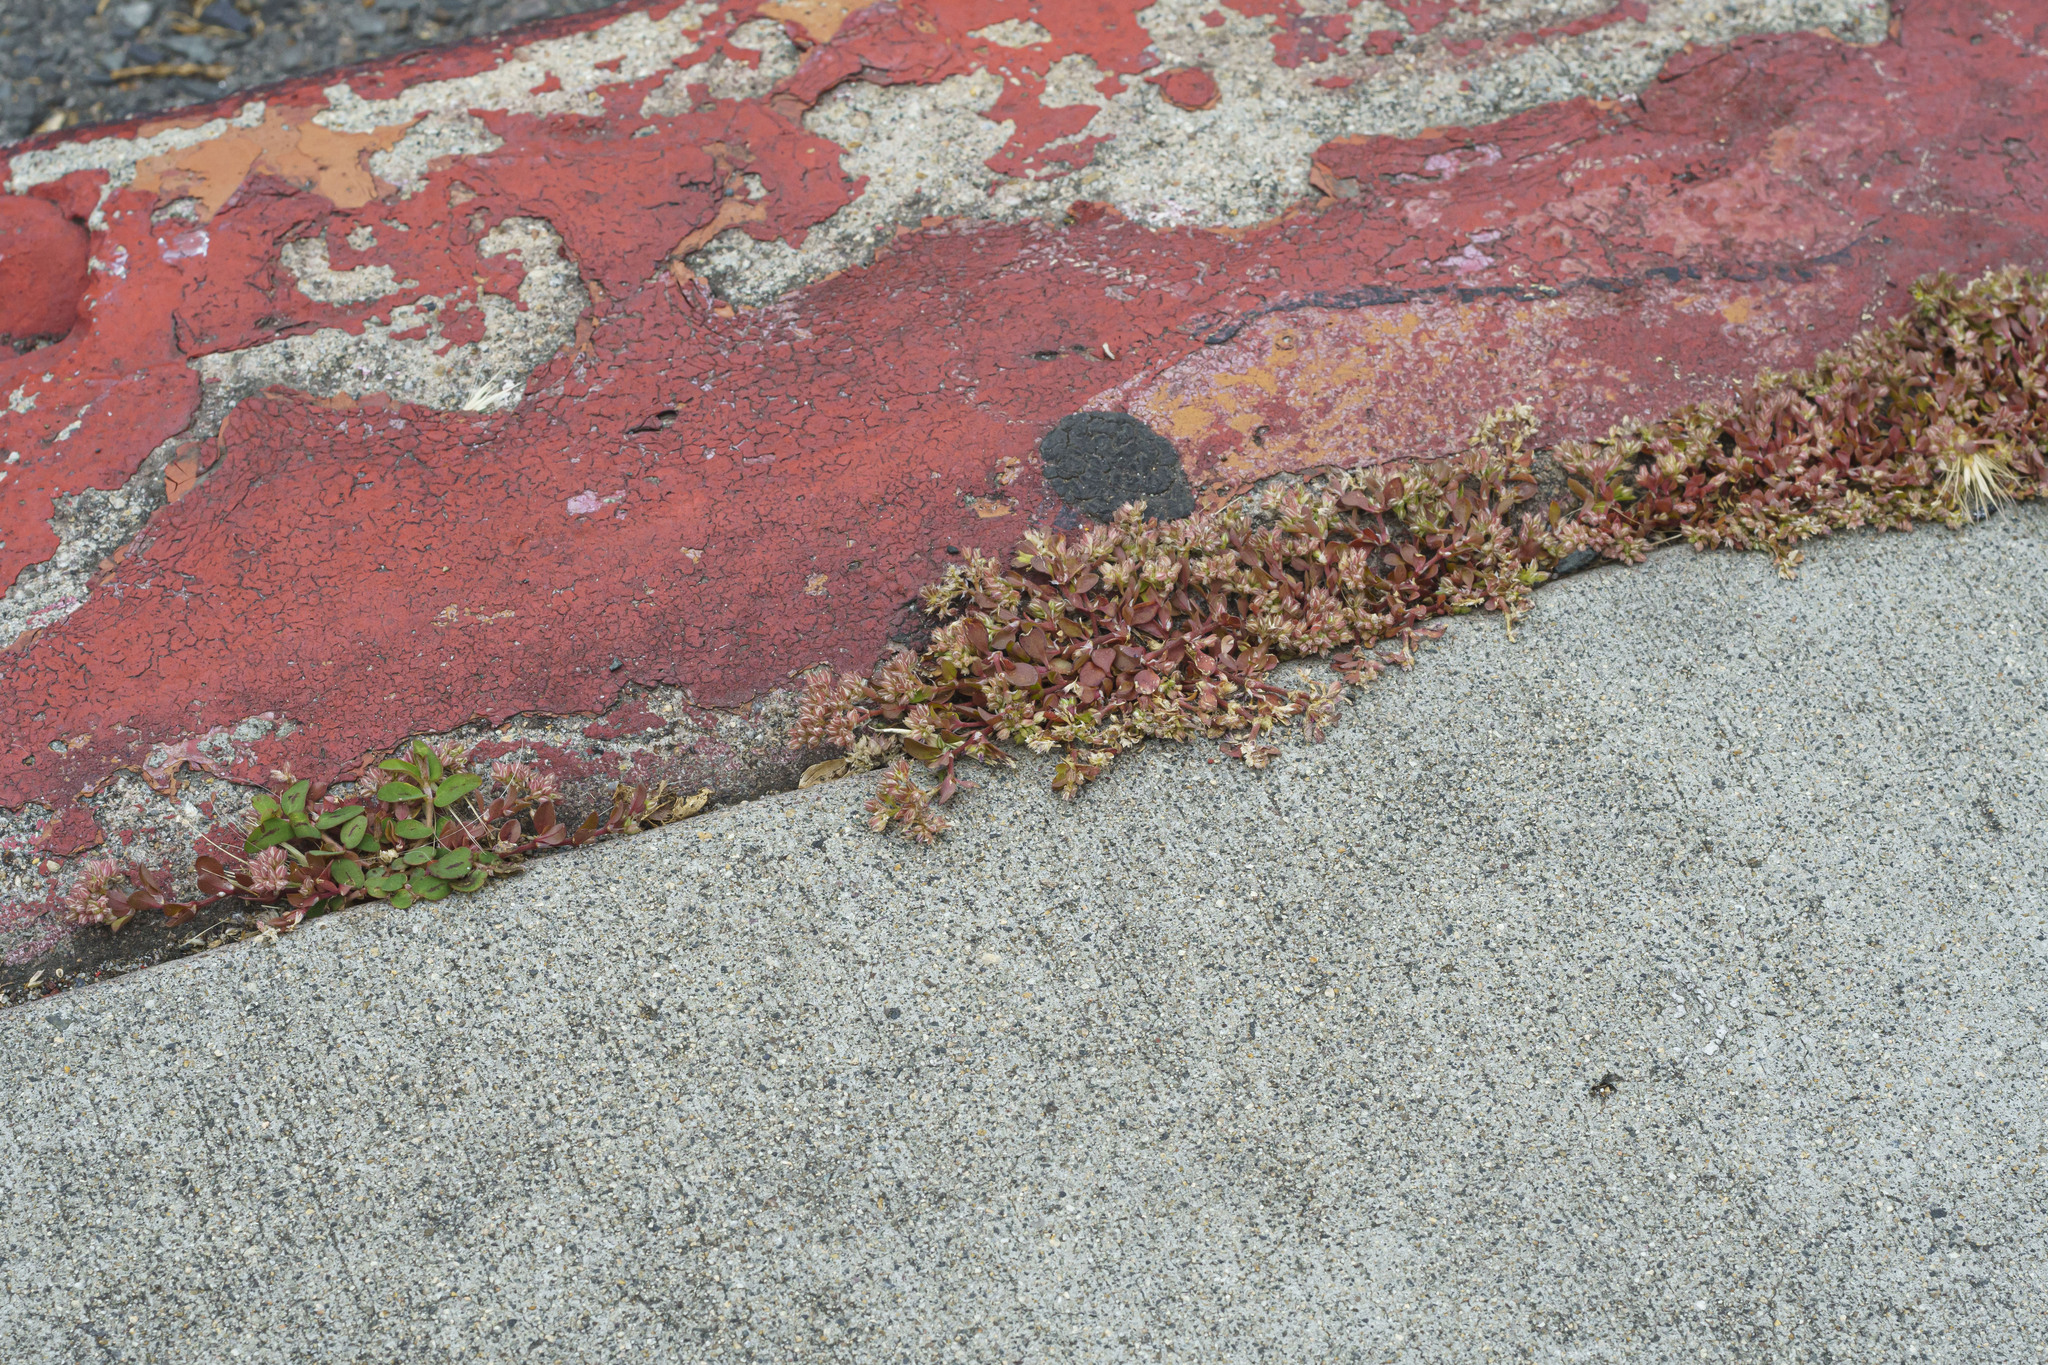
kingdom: Plantae
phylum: Tracheophyta
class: Magnoliopsida
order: Caryophyllales
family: Caryophyllaceae
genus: Polycarpon
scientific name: Polycarpon tetraphyllum
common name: Four-leaved all-seed
